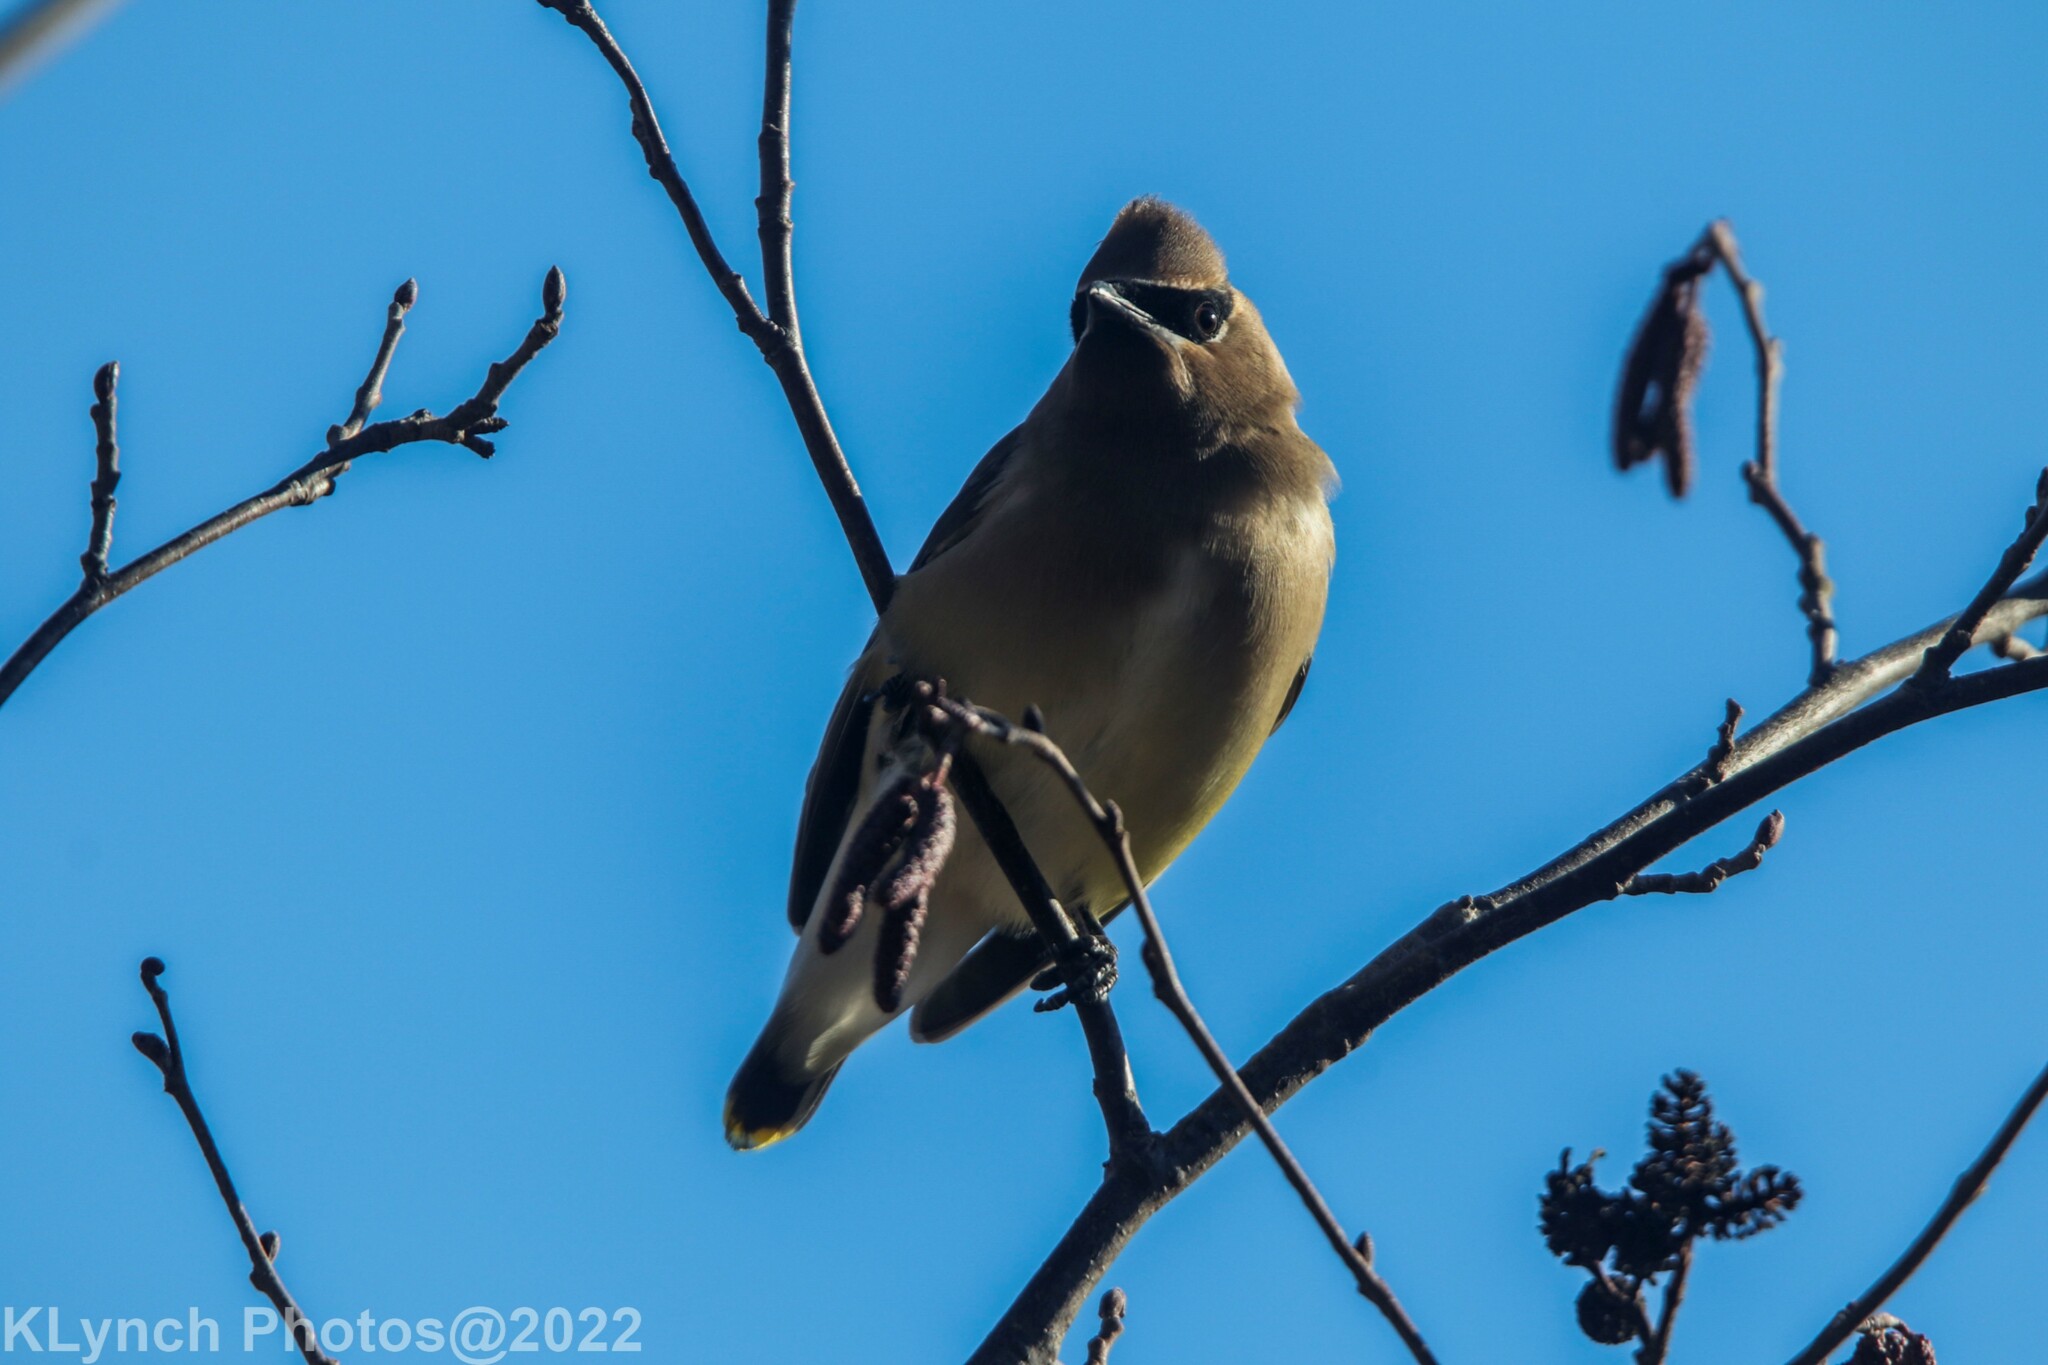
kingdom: Animalia
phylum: Chordata
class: Aves
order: Passeriformes
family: Bombycillidae
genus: Bombycilla
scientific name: Bombycilla cedrorum
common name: Cedar waxwing
